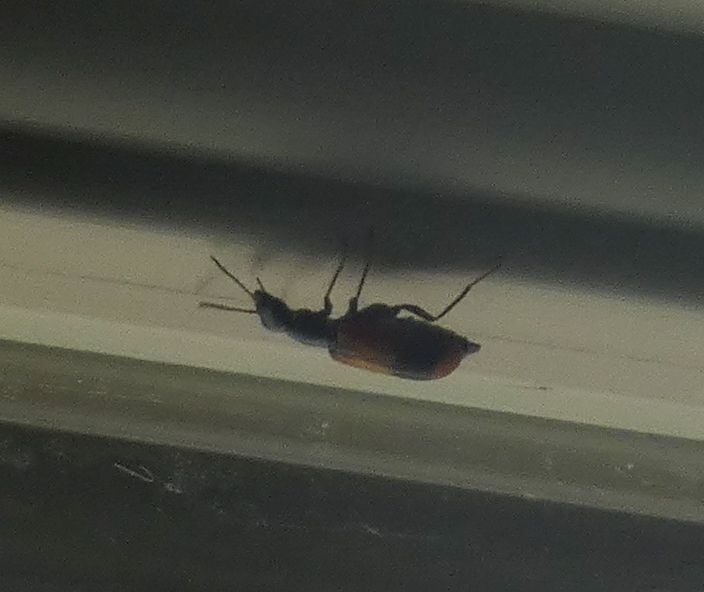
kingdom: Animalia
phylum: Arthropoda
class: Insecta
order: Coleoptera
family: Melyridae
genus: Anthocomus
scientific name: Anthocomus equestris
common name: Black-banded soft-winged flower beetle
